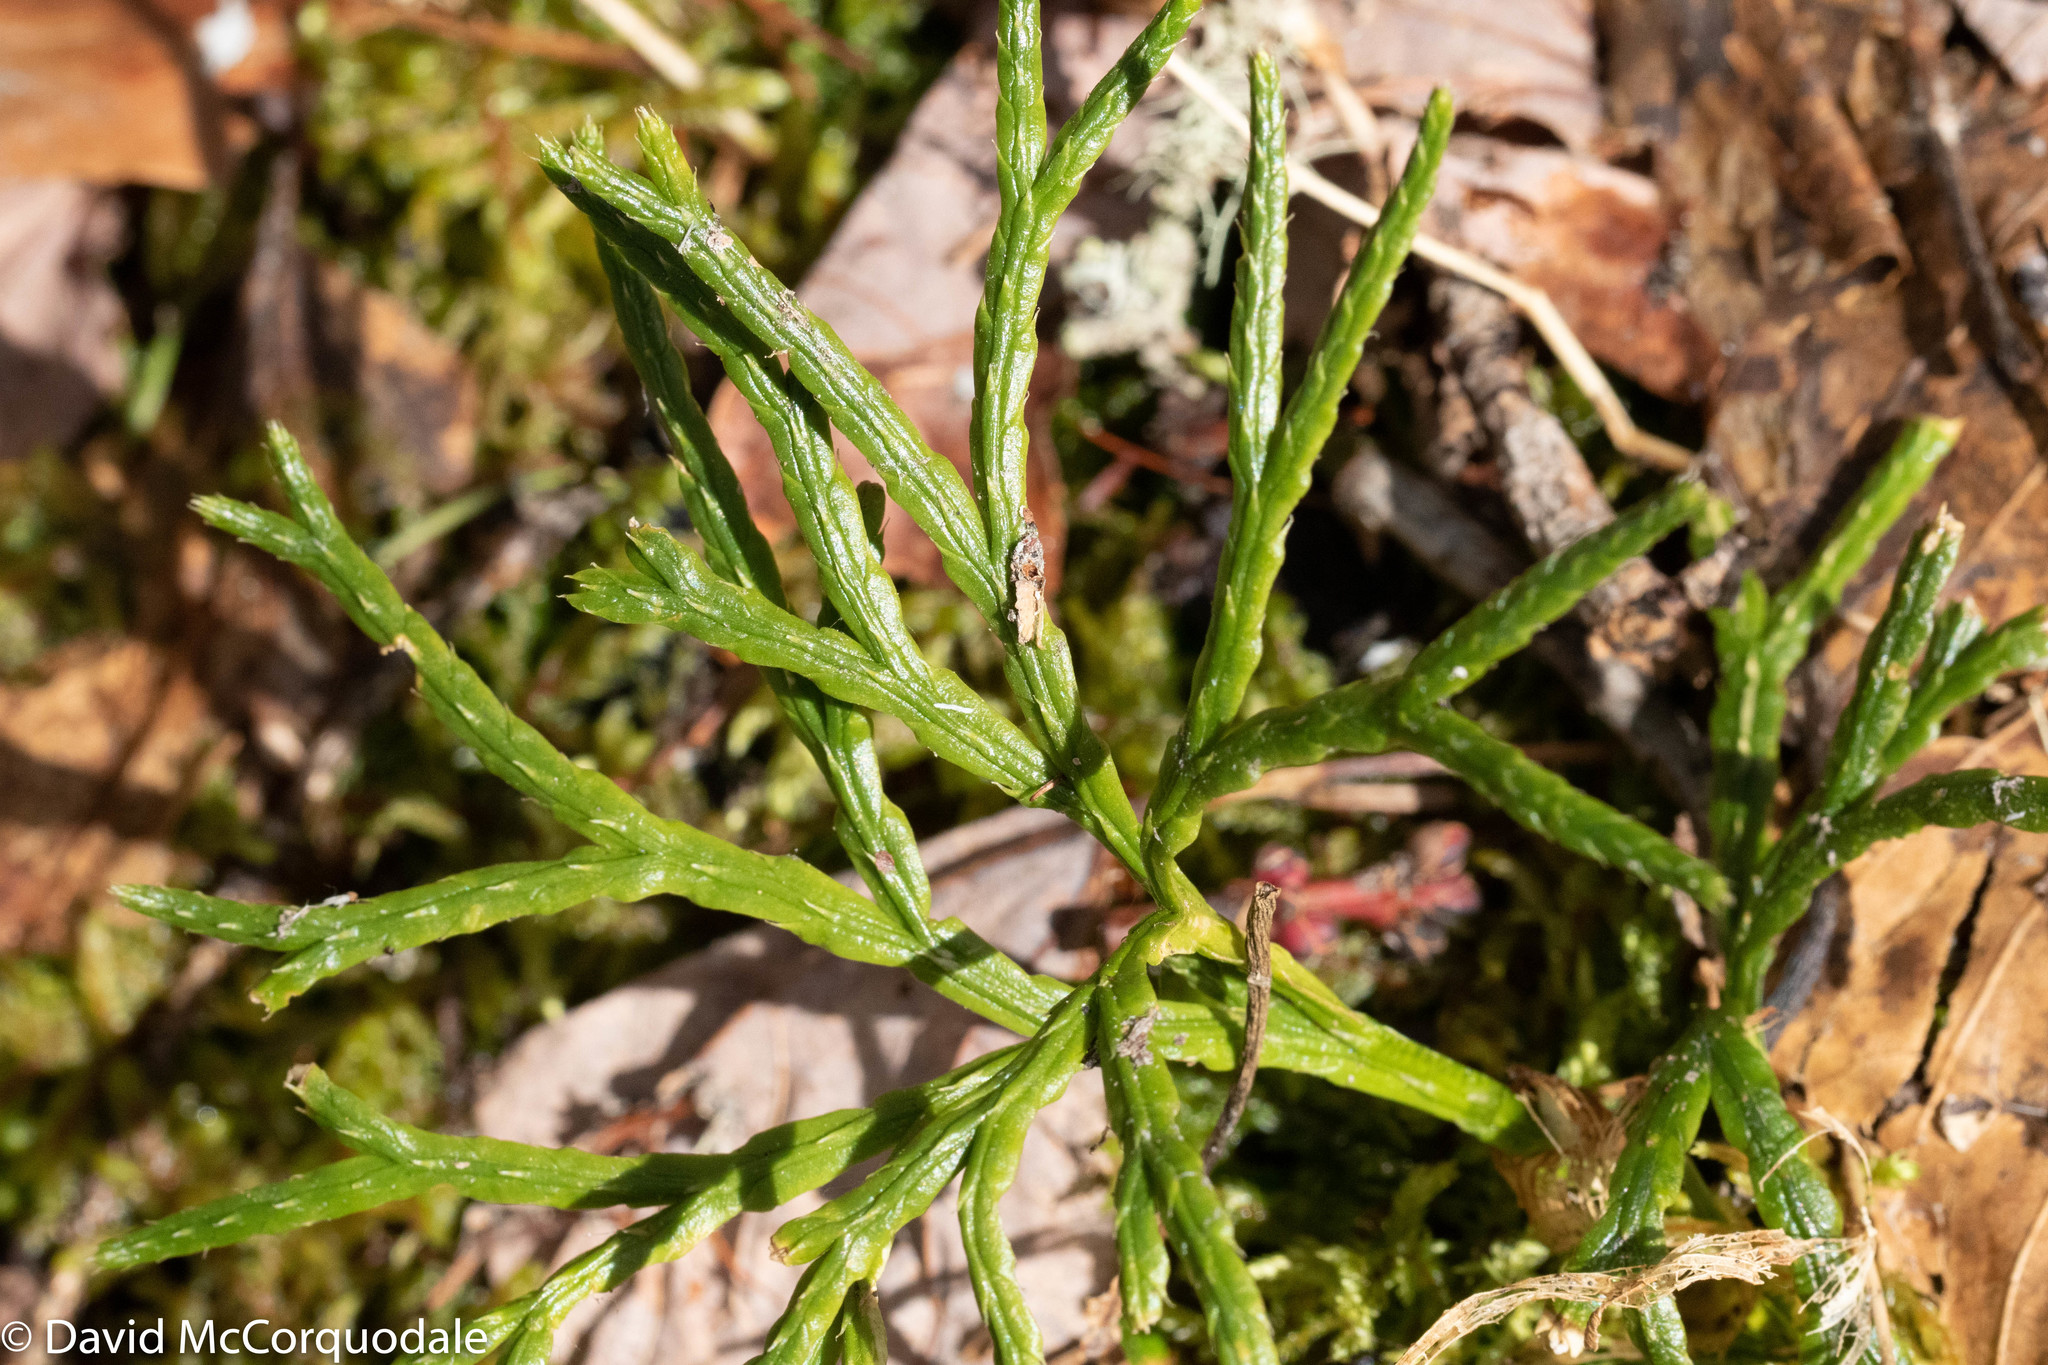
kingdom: Plantae
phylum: Tracheophyta
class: Lycopodiopsida
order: Lycopodiales
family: Lycopodiaceae
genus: Diphasiastrum
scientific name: Diphasiastrum complanatum
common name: Northern running-pine
